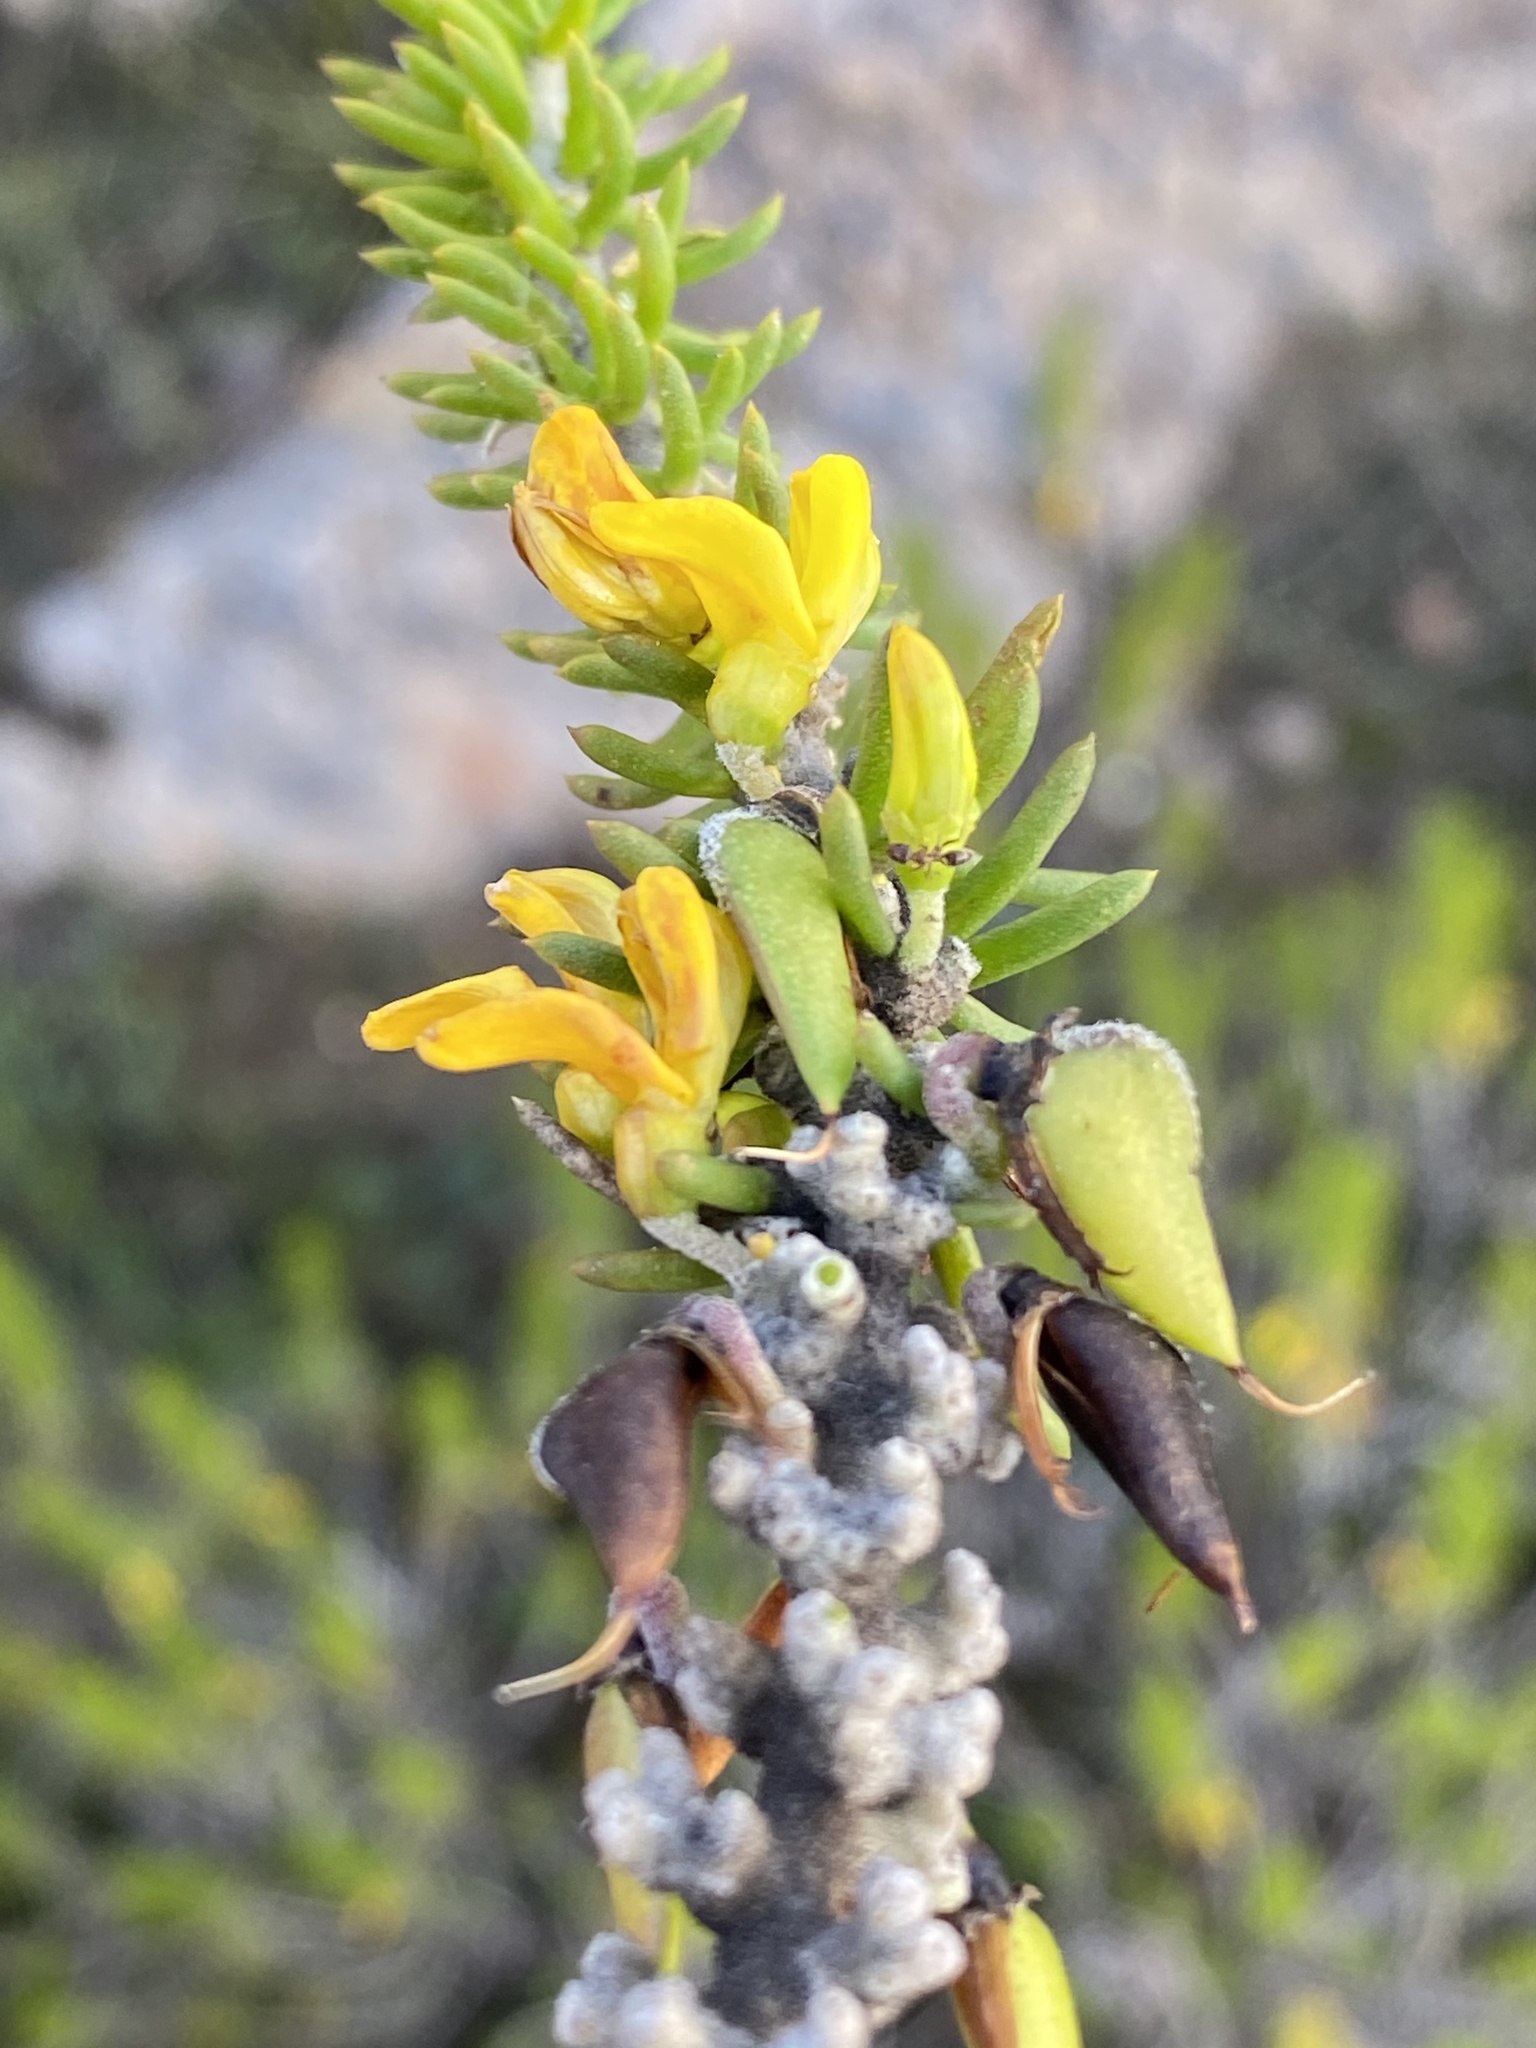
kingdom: Plantae
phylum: Tracheophyta
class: Magnoliopsida
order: Fabales
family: Fabaceae
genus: Aspalathus
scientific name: Aspalathus pinguis
